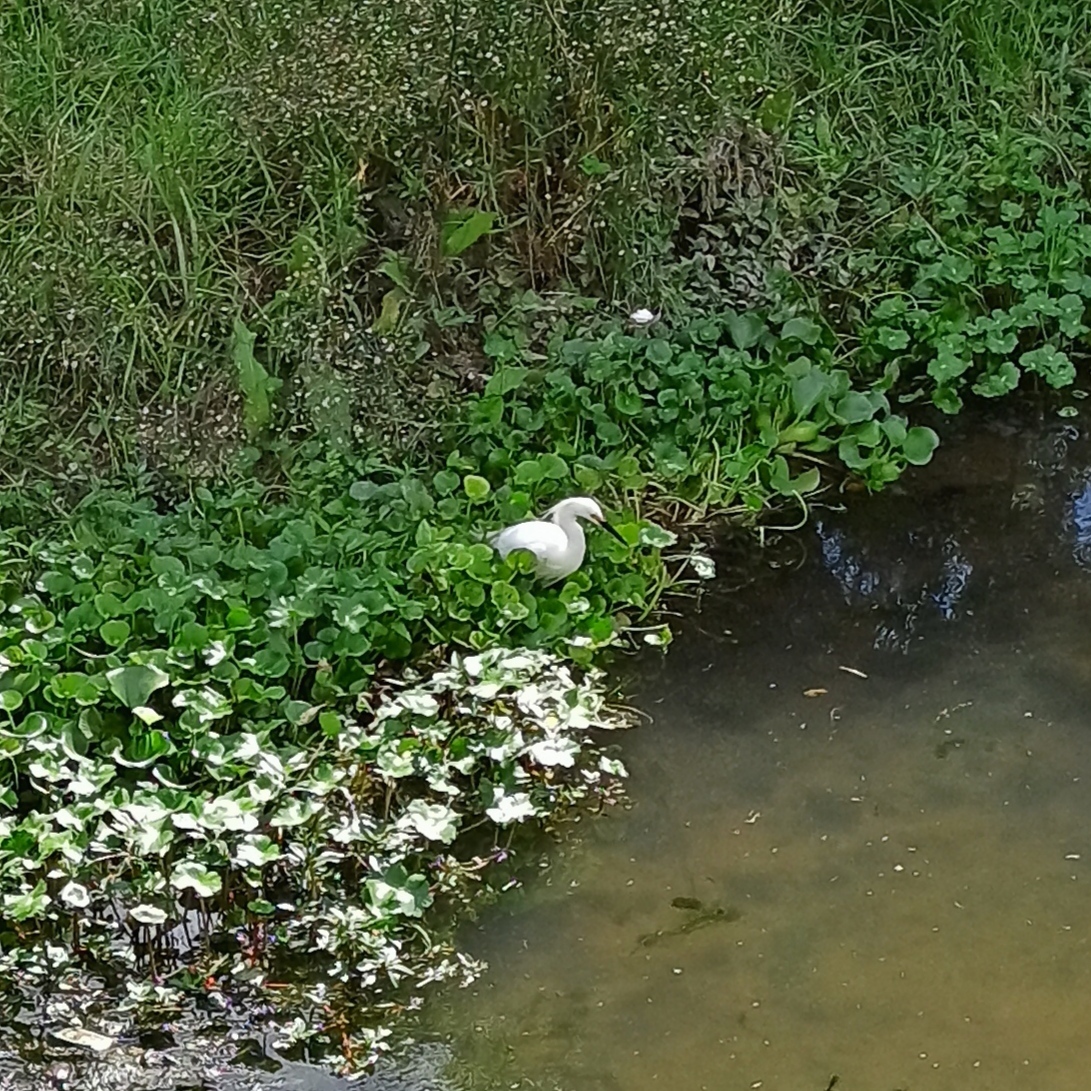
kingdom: Animalia
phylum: Chordata
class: Aves
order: Pelecaniformes
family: Ardeidae
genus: Egretta
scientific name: Egretta thula
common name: Snowy egret
